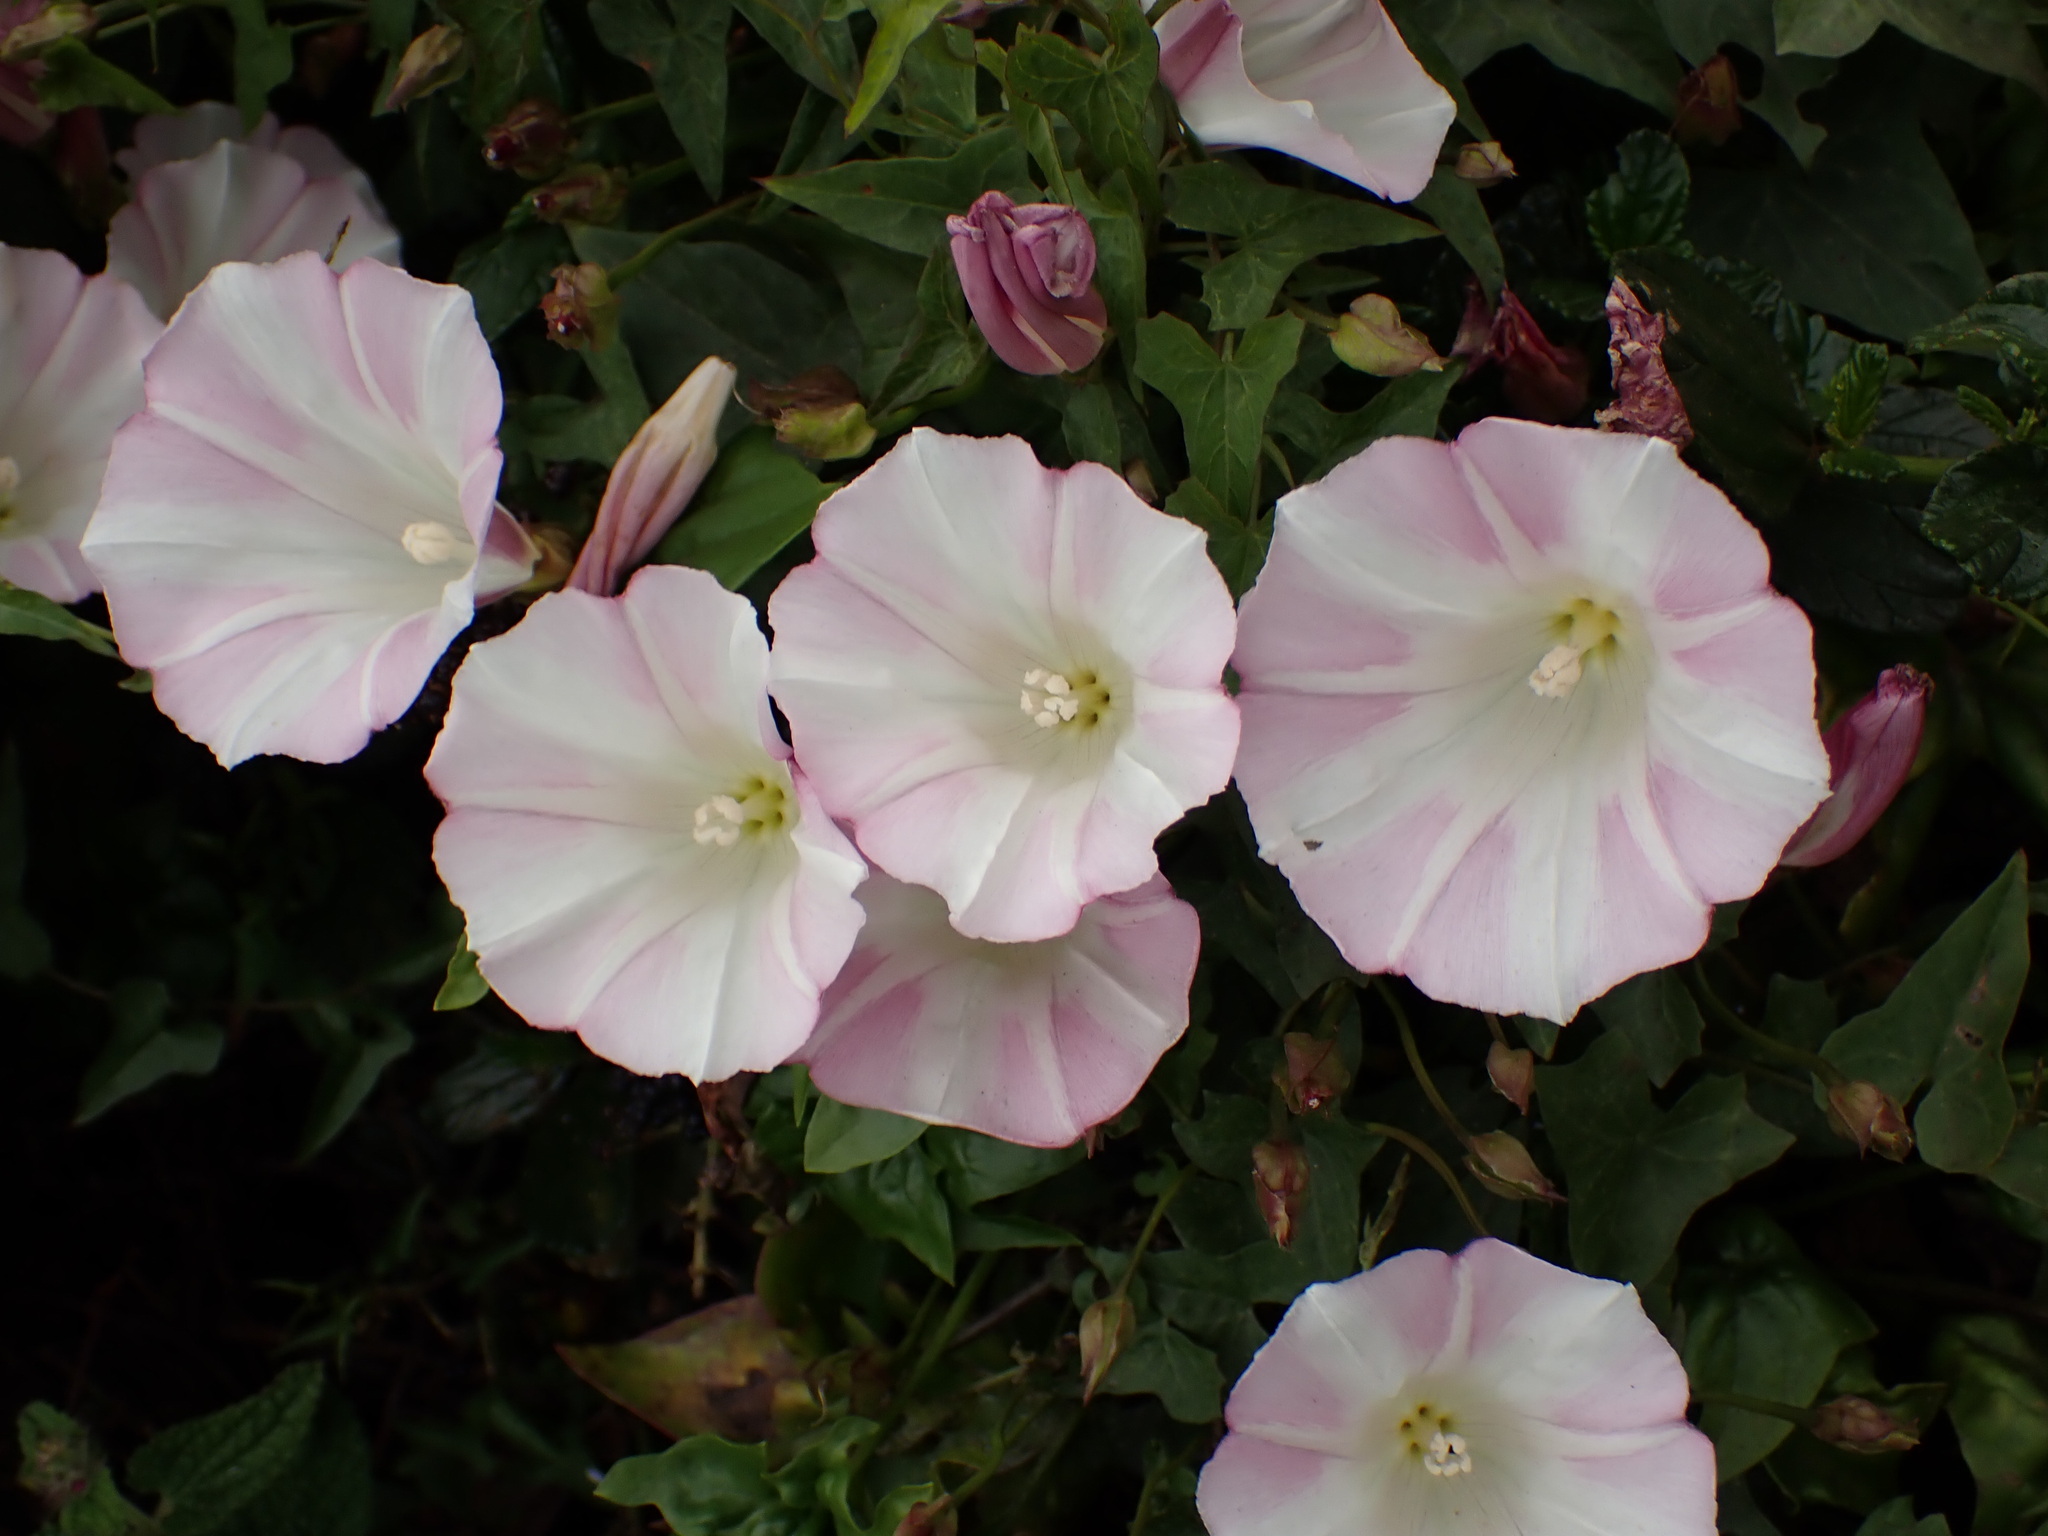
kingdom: Plantae
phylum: Tracheophyta
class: Magnoliopsida
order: Solanales
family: Convolvulaceae
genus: Calystegia
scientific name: Calystegia macrostegia
